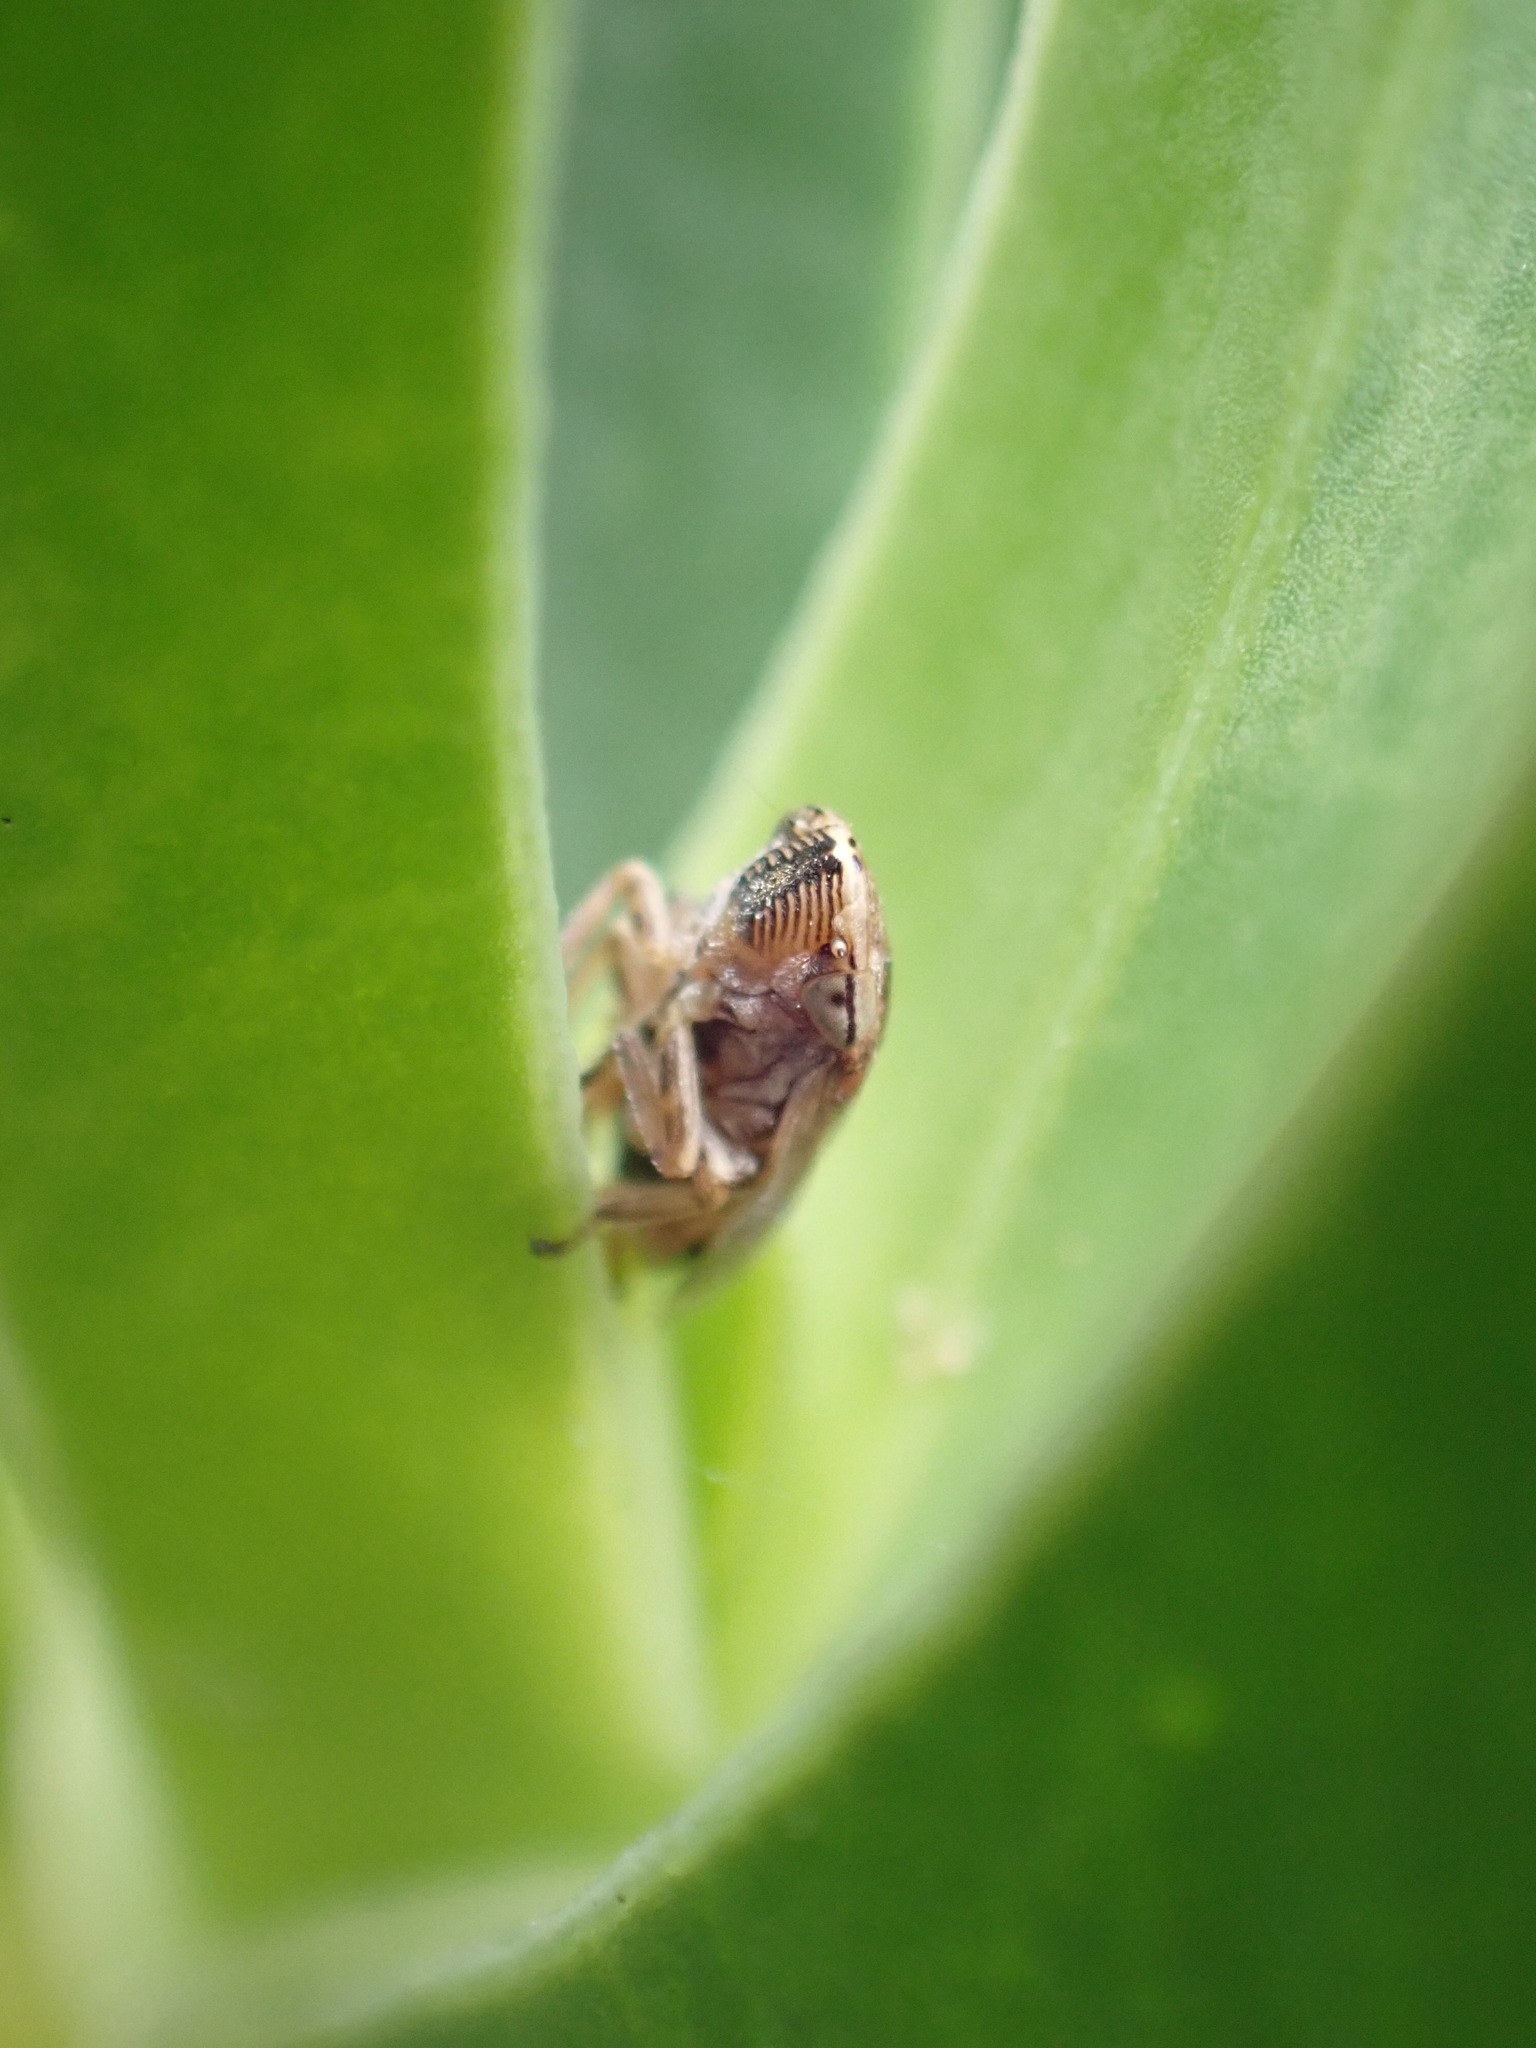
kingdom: Animalia
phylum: Arthropoda
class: Insecta
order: Hemiptera
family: Aphrophoridae
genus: Philaenus
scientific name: Philaenus spumarius
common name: Meadow spittlebug
